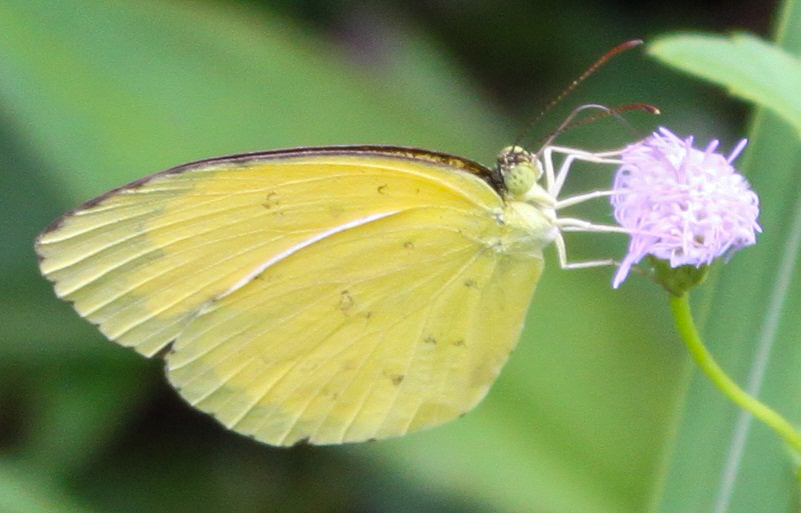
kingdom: Animalia
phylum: Arthropoda
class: Insecta
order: Lepidoptera
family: Pieridae
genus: Eurema
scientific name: Eurema hecabe
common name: Pale grass yellow
